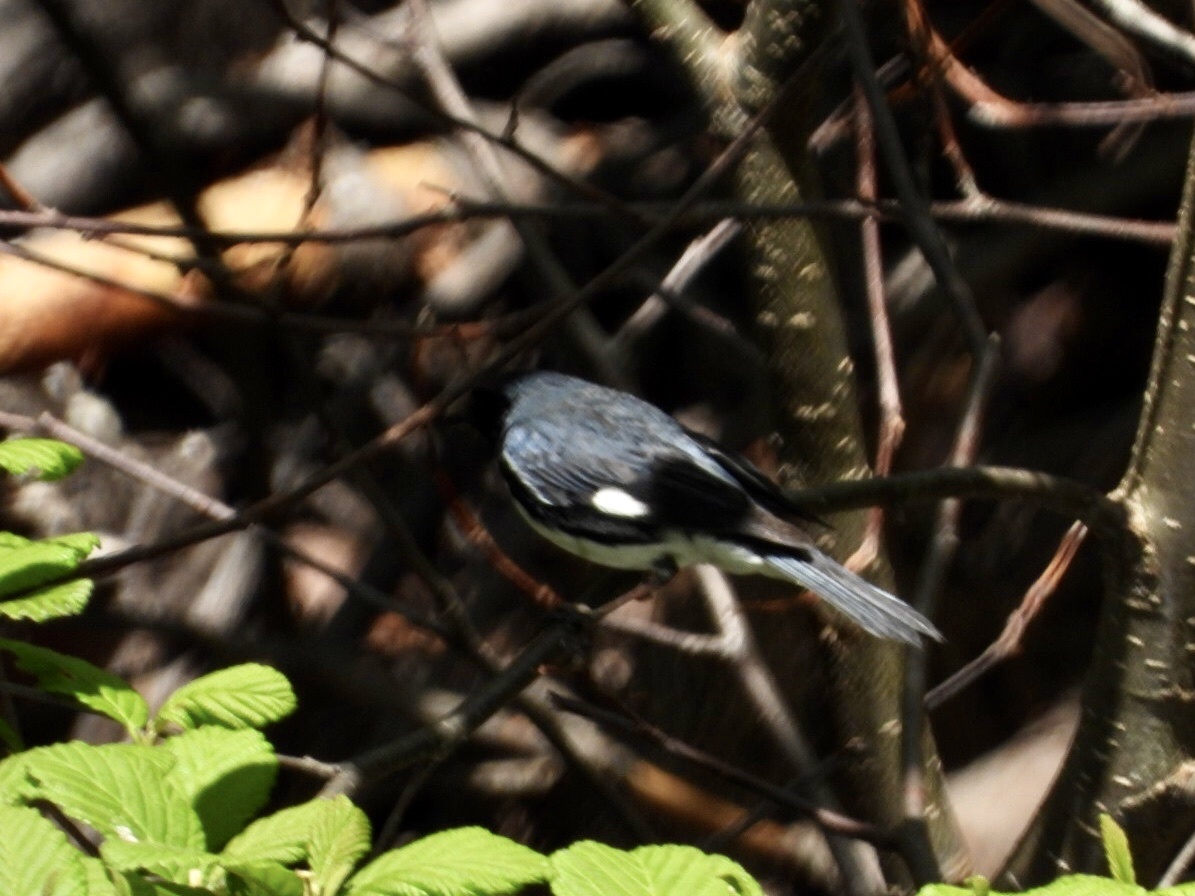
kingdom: Animalia
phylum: Chordata
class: Aves
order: Passeriformes
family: Parulidae
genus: Setophaga
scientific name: Setophaga caerulescens
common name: Black-throated blue warbler
